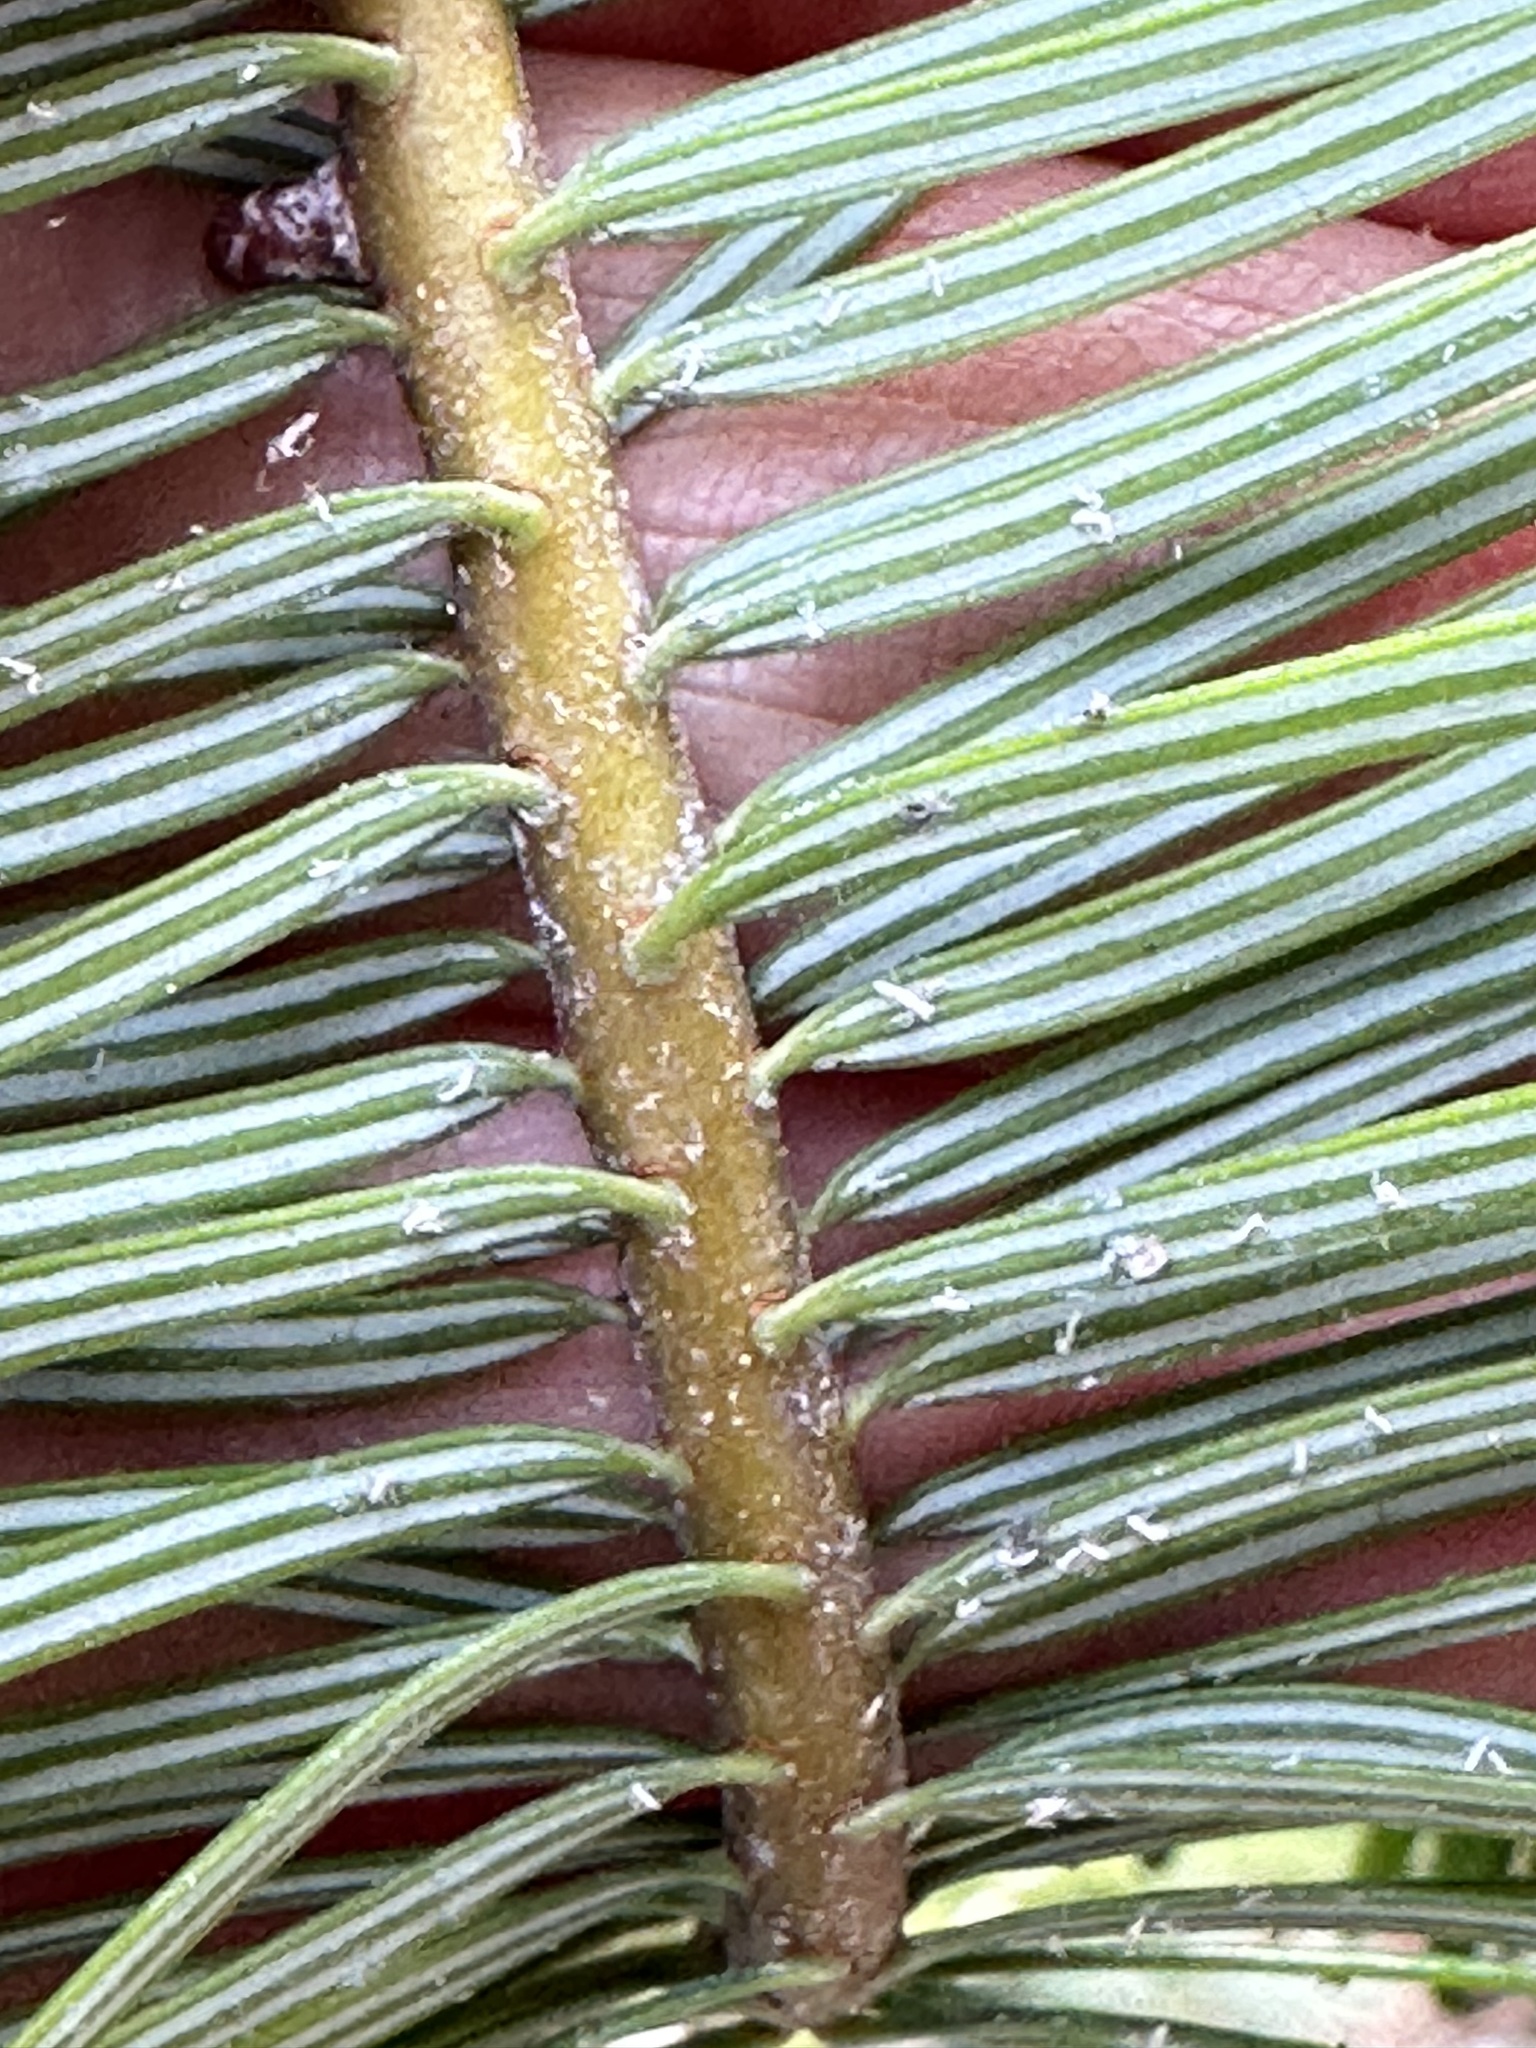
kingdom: Plantae
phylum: Tracheophyta
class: Pinopsida
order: Pinales
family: Pinaceae
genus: Abies
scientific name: Abies grandis
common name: Giant fir
